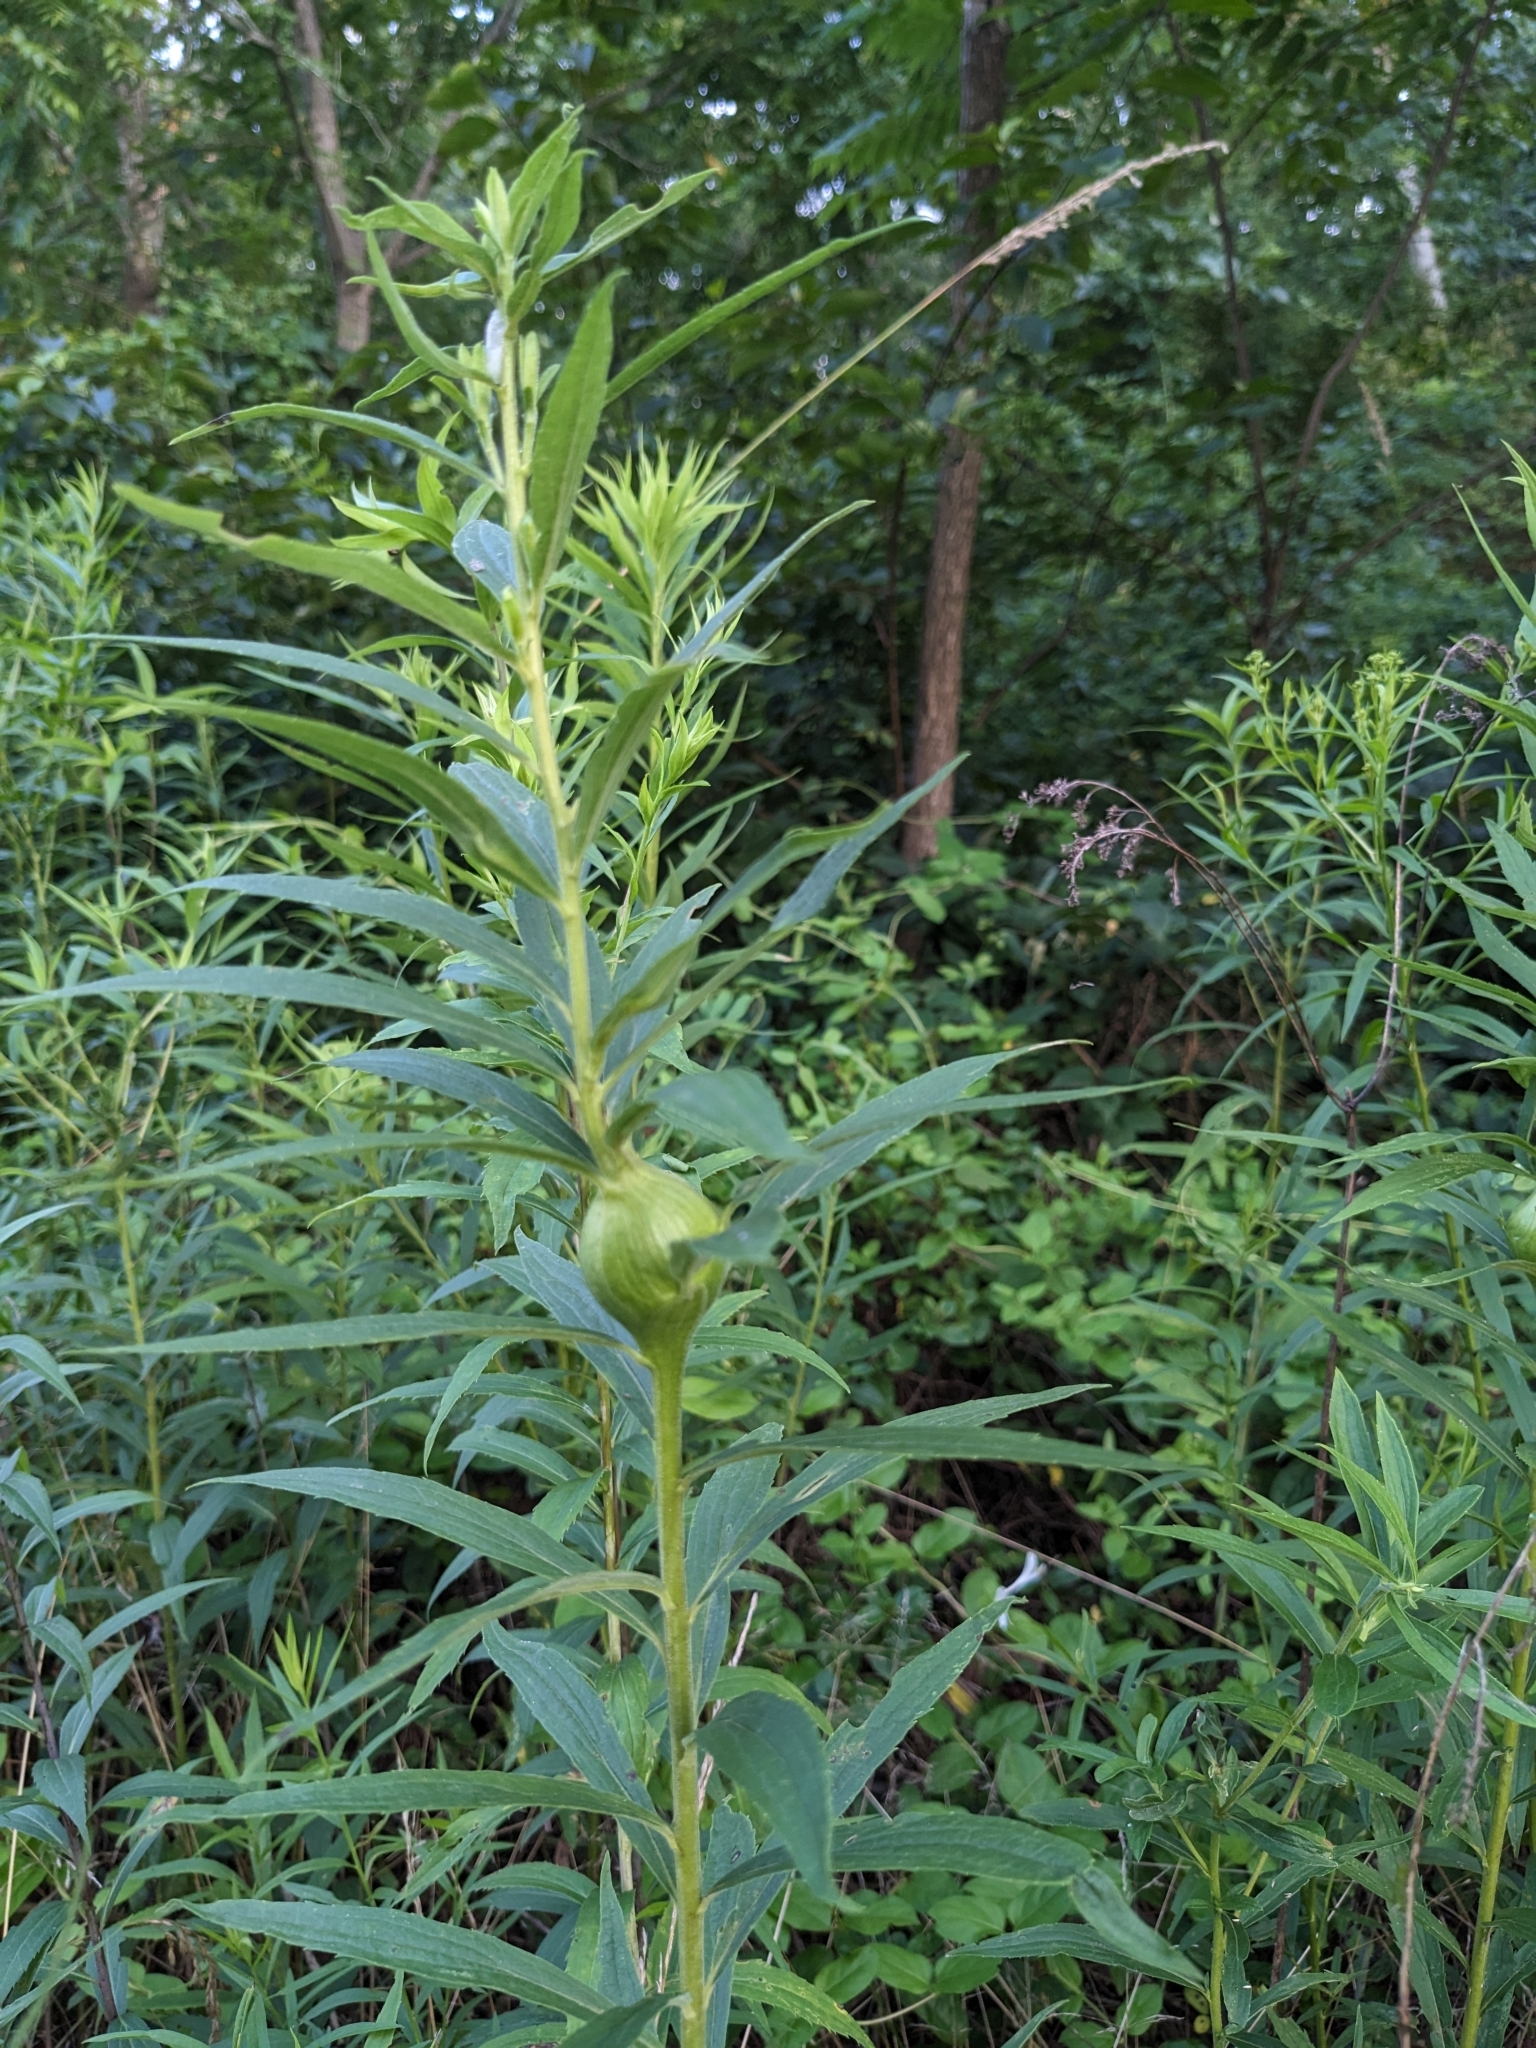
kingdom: Animalia
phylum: Arthropoda
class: Insecta
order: Diptera
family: Tephritidae
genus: Eurosta
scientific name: Eurosta solidaginis
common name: Goldenrod gall fly
